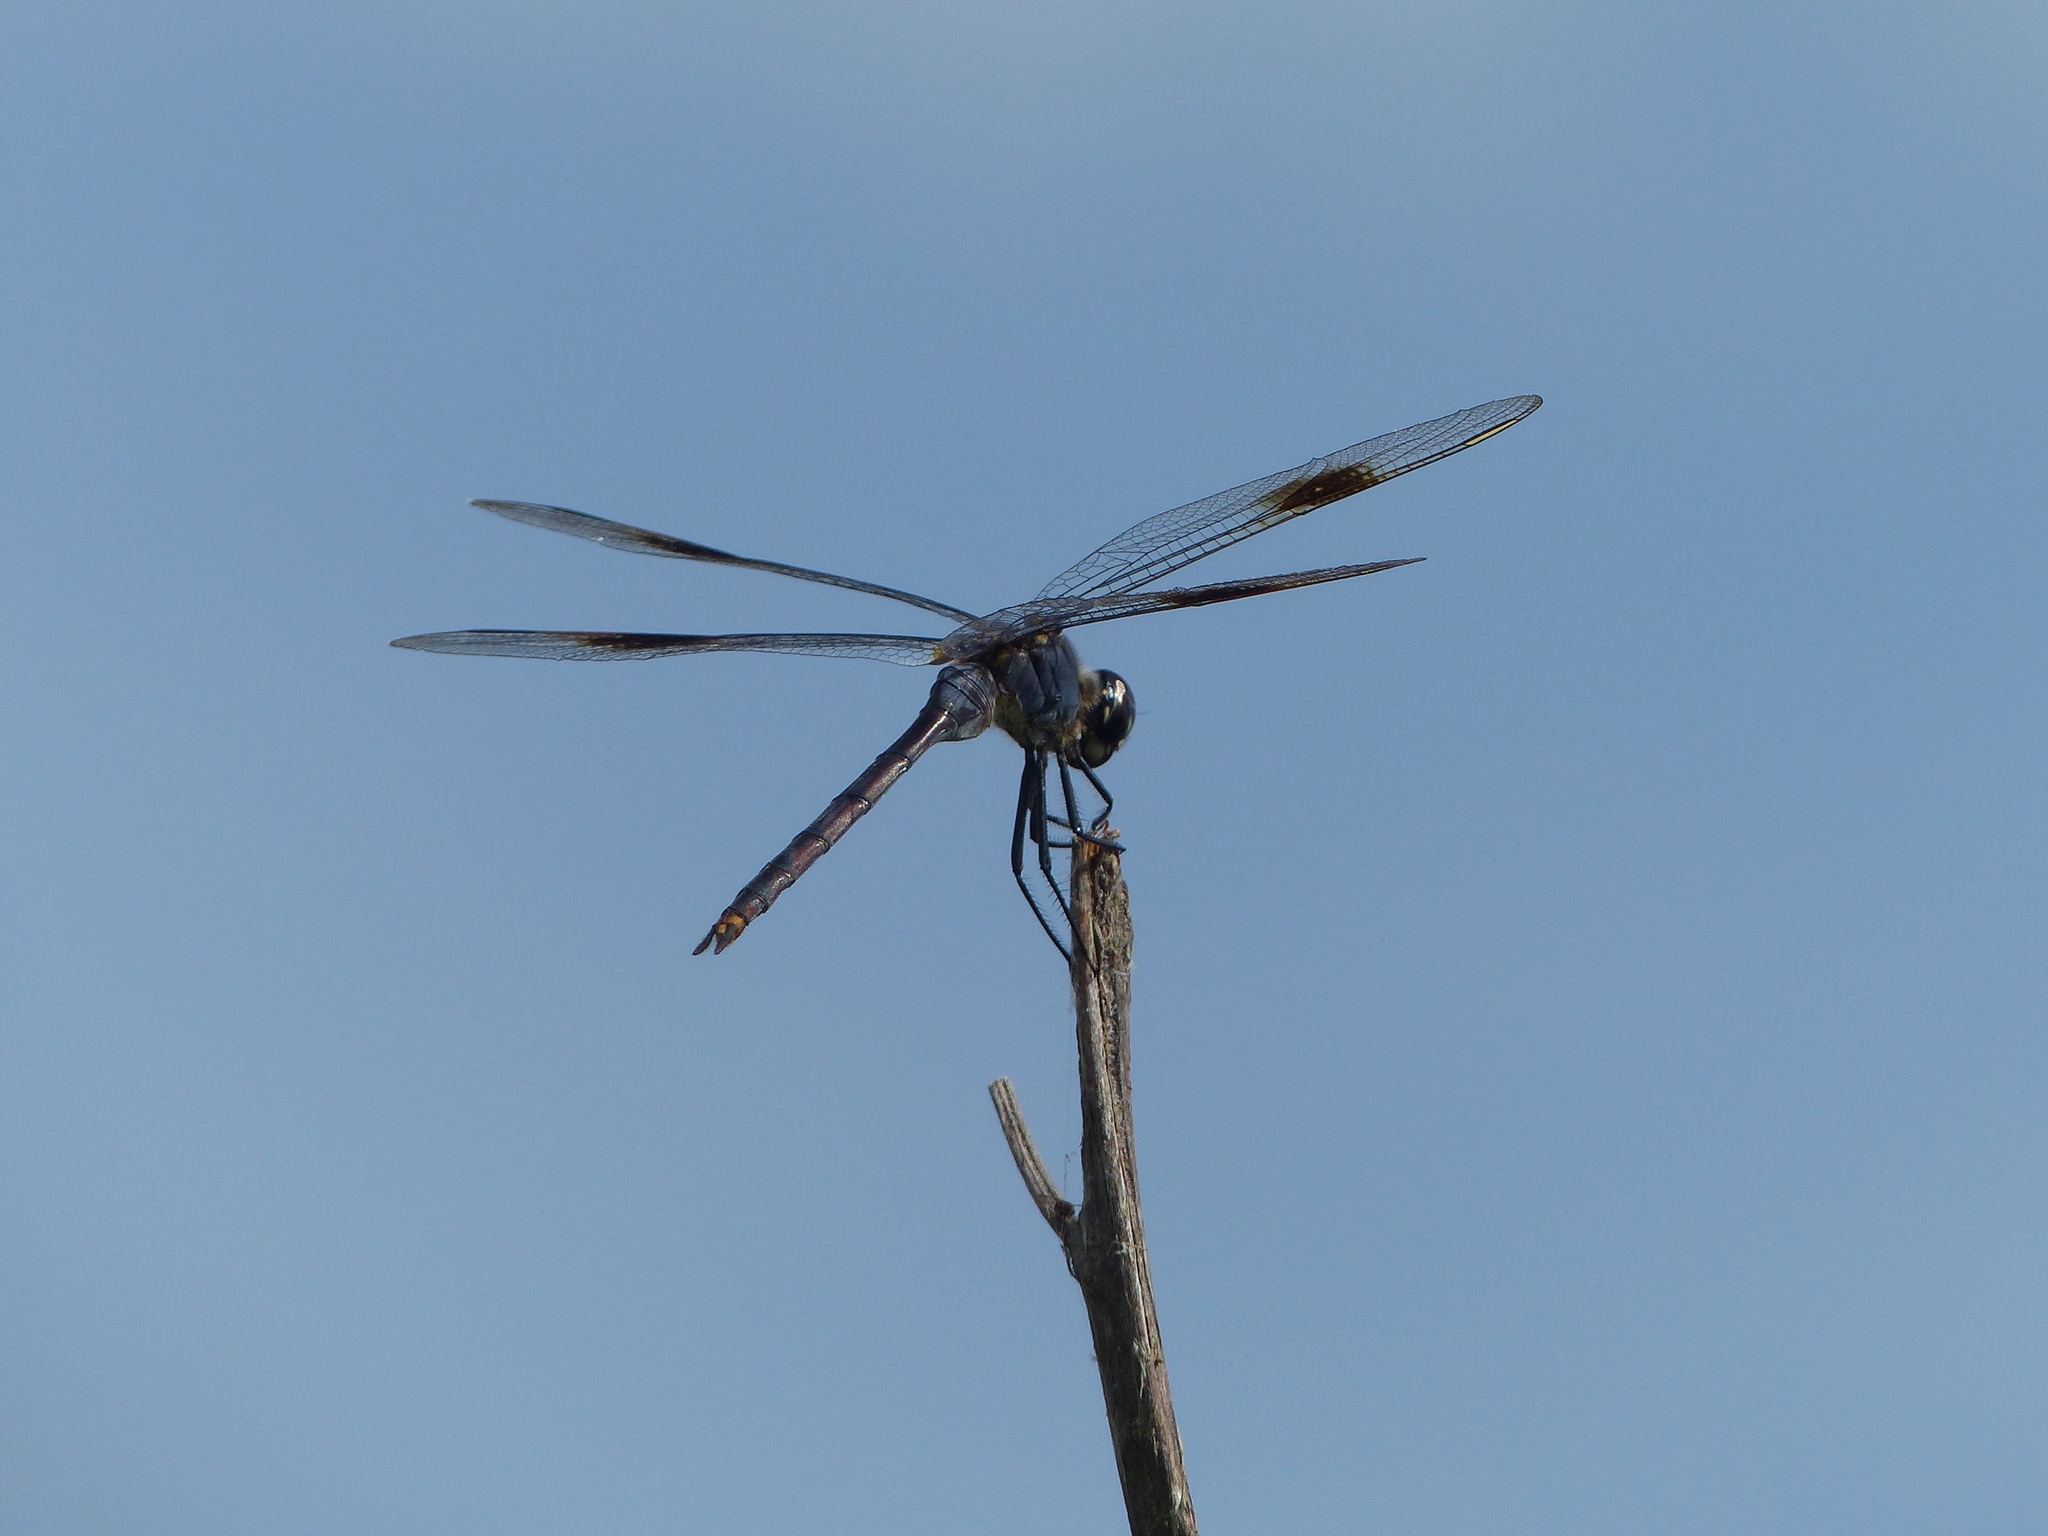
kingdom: Animalia
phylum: Arthropoda
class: Insecta
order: Odonata
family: Libellulidae
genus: Brachymesia
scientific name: Brachymesia gravida
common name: Four-spotted pennant
